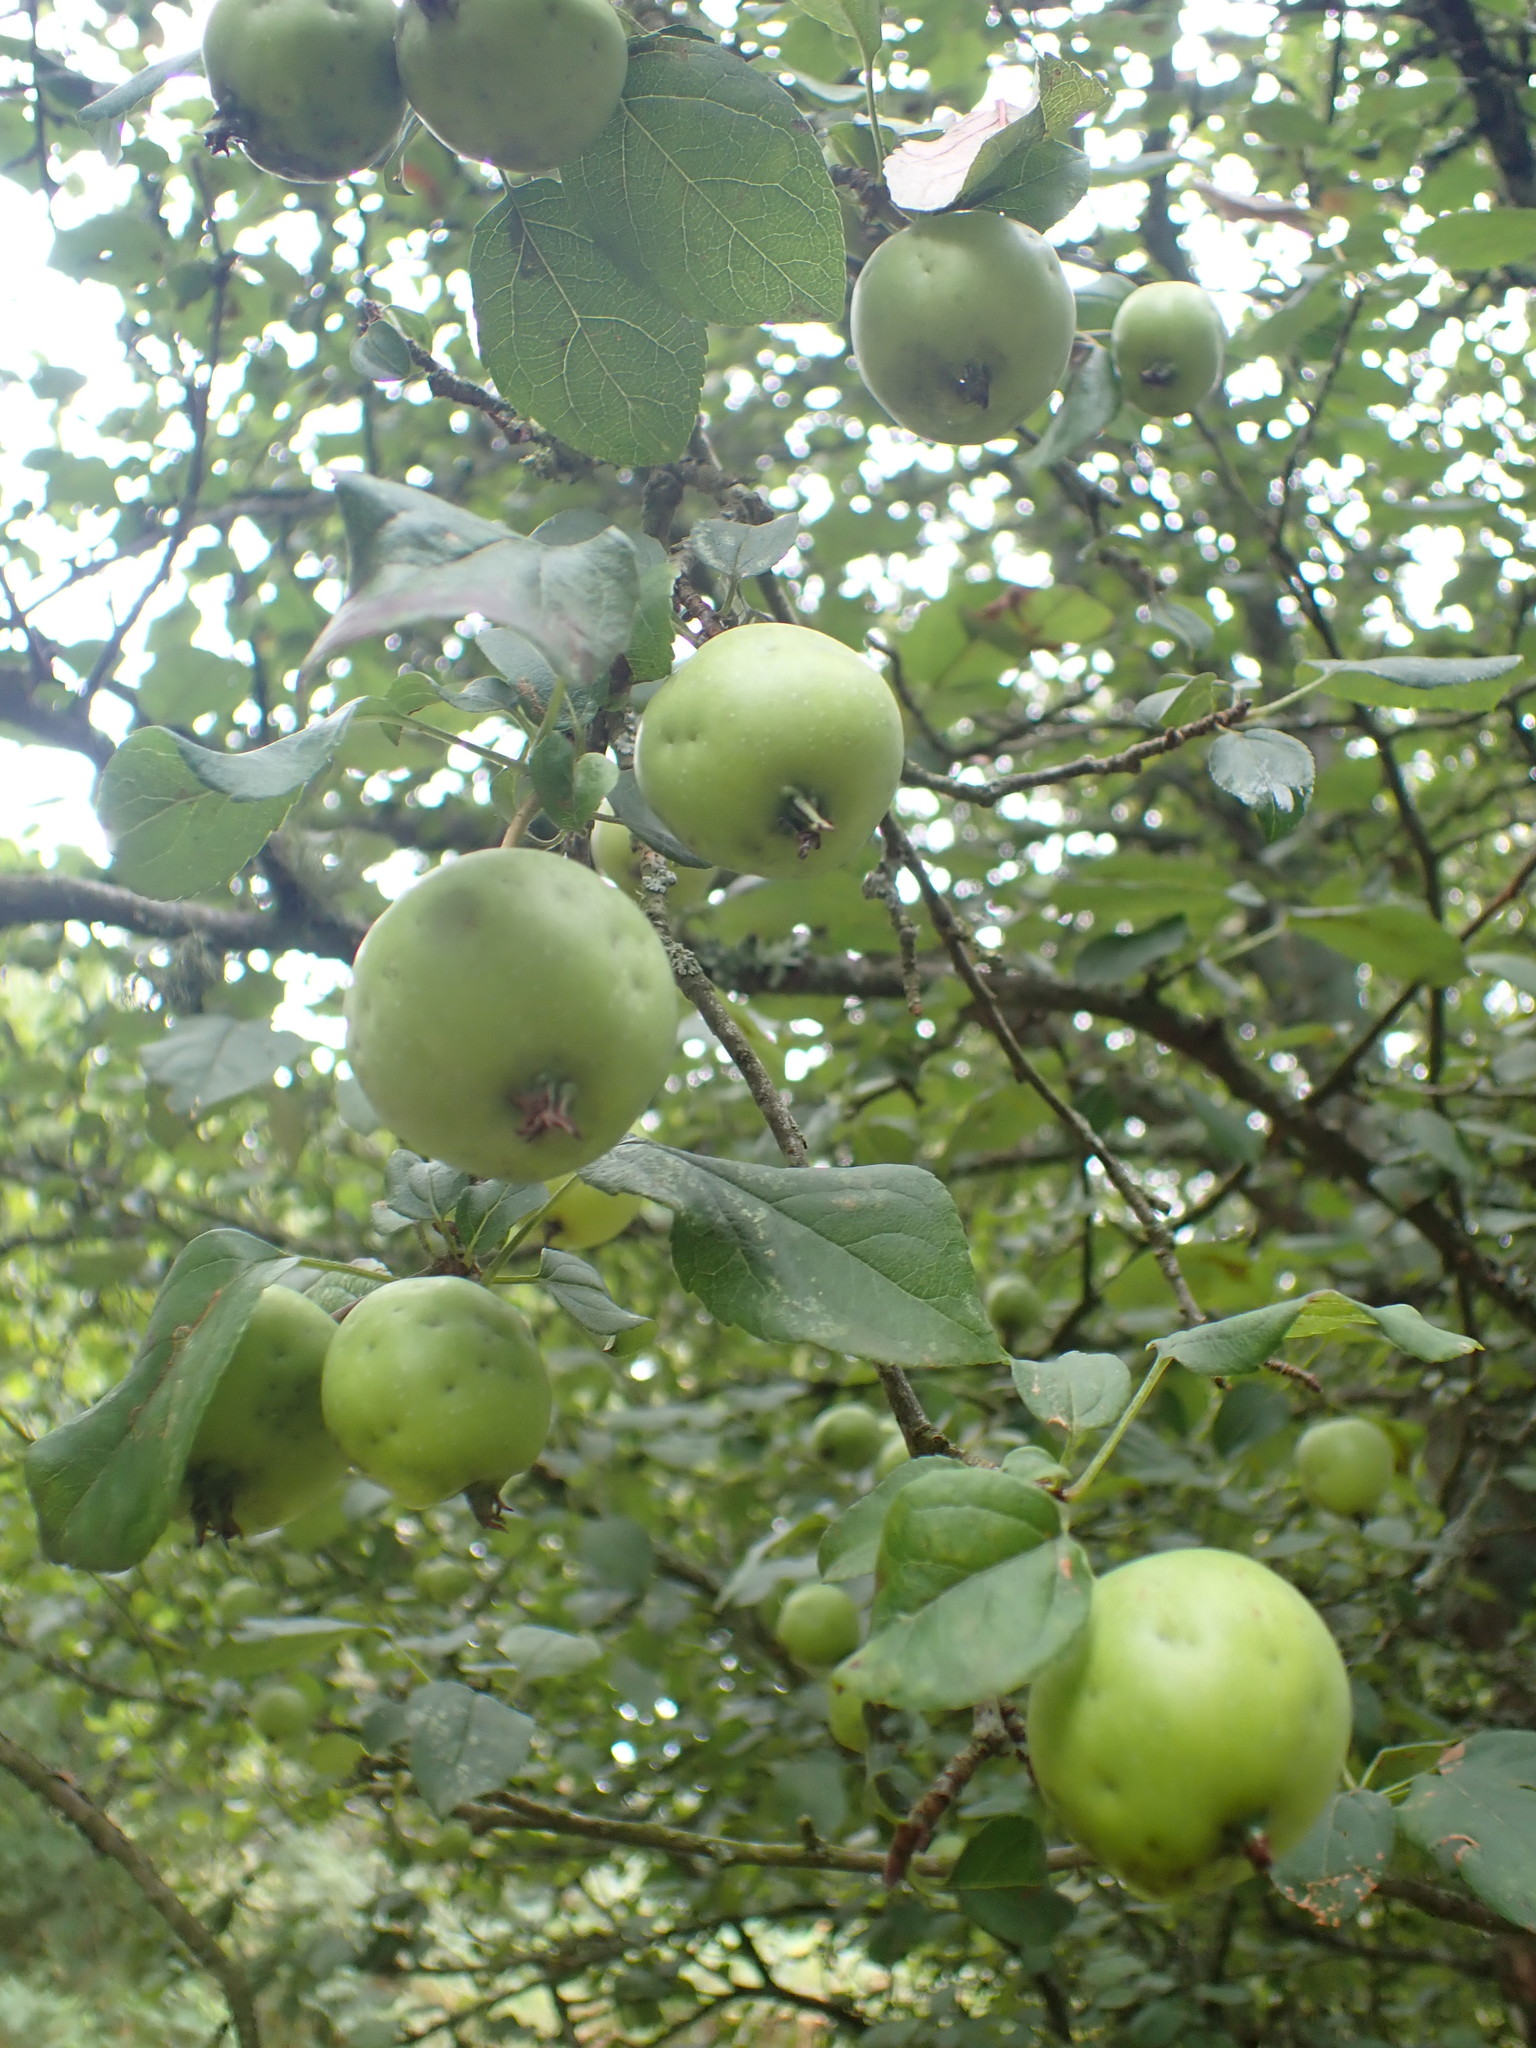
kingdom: Plantae
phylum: Tracheophyta
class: Magnoliopsida
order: Rosales
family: Rosaceae
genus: Malus
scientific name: Malus sylvestris
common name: Crab apple
